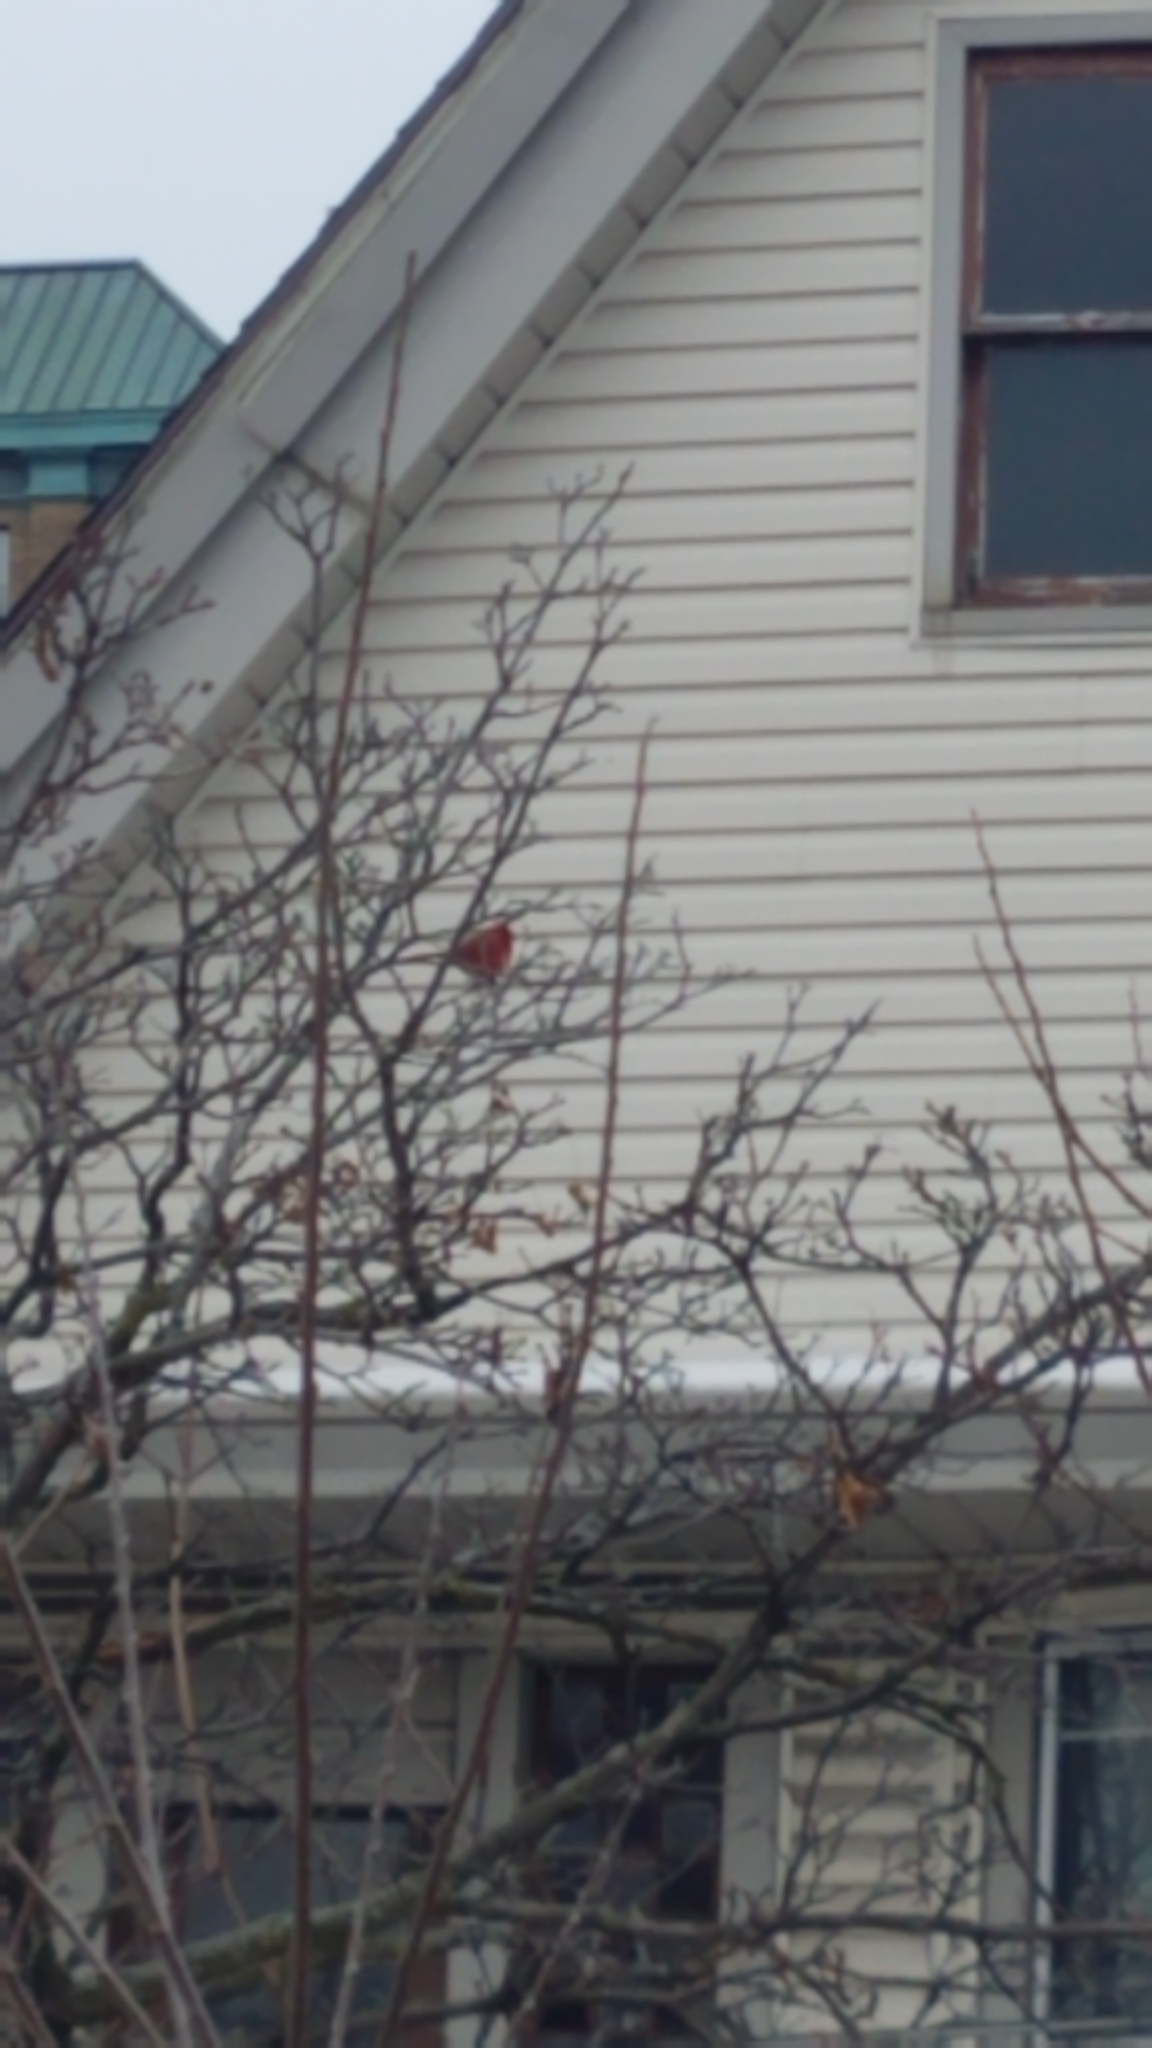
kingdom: Animalia
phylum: Chordata
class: Aves
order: Passeriformes
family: Cardinalidae
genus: Cardinalis
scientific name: Cardinalis cardinalis
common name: Northern cardinal
